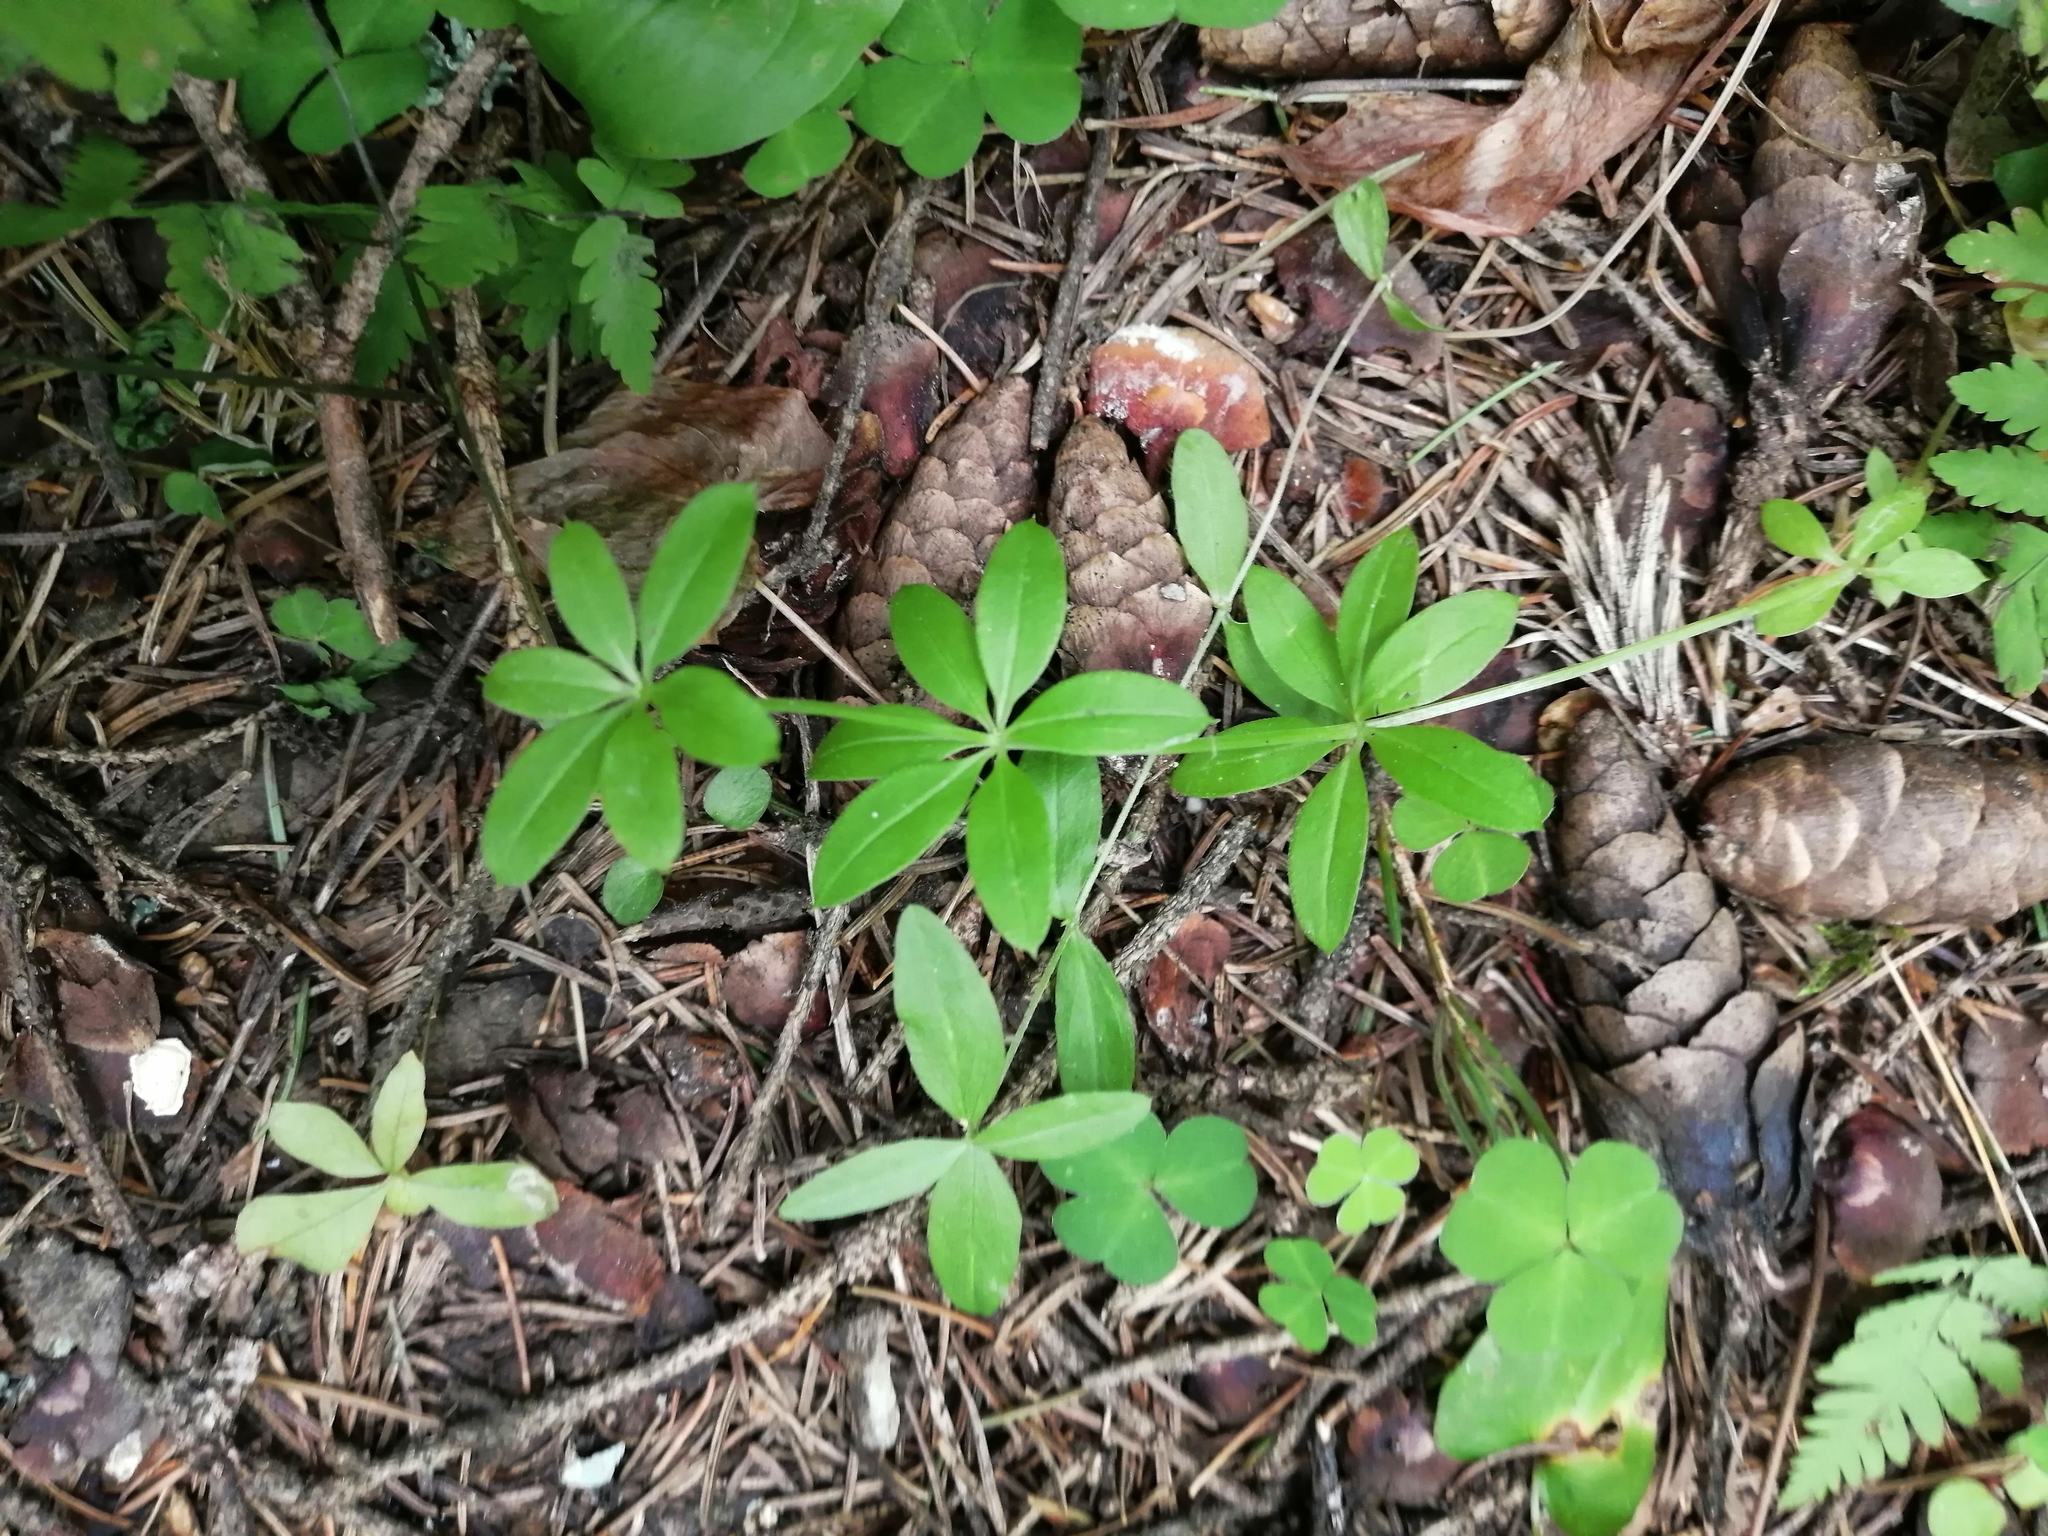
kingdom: Plantae
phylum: Tracheophyta
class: Magnoliopsida
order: Gentianales
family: Rubiaceae
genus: Galium
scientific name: Galium triflorum
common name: Fragrant bedstraw
